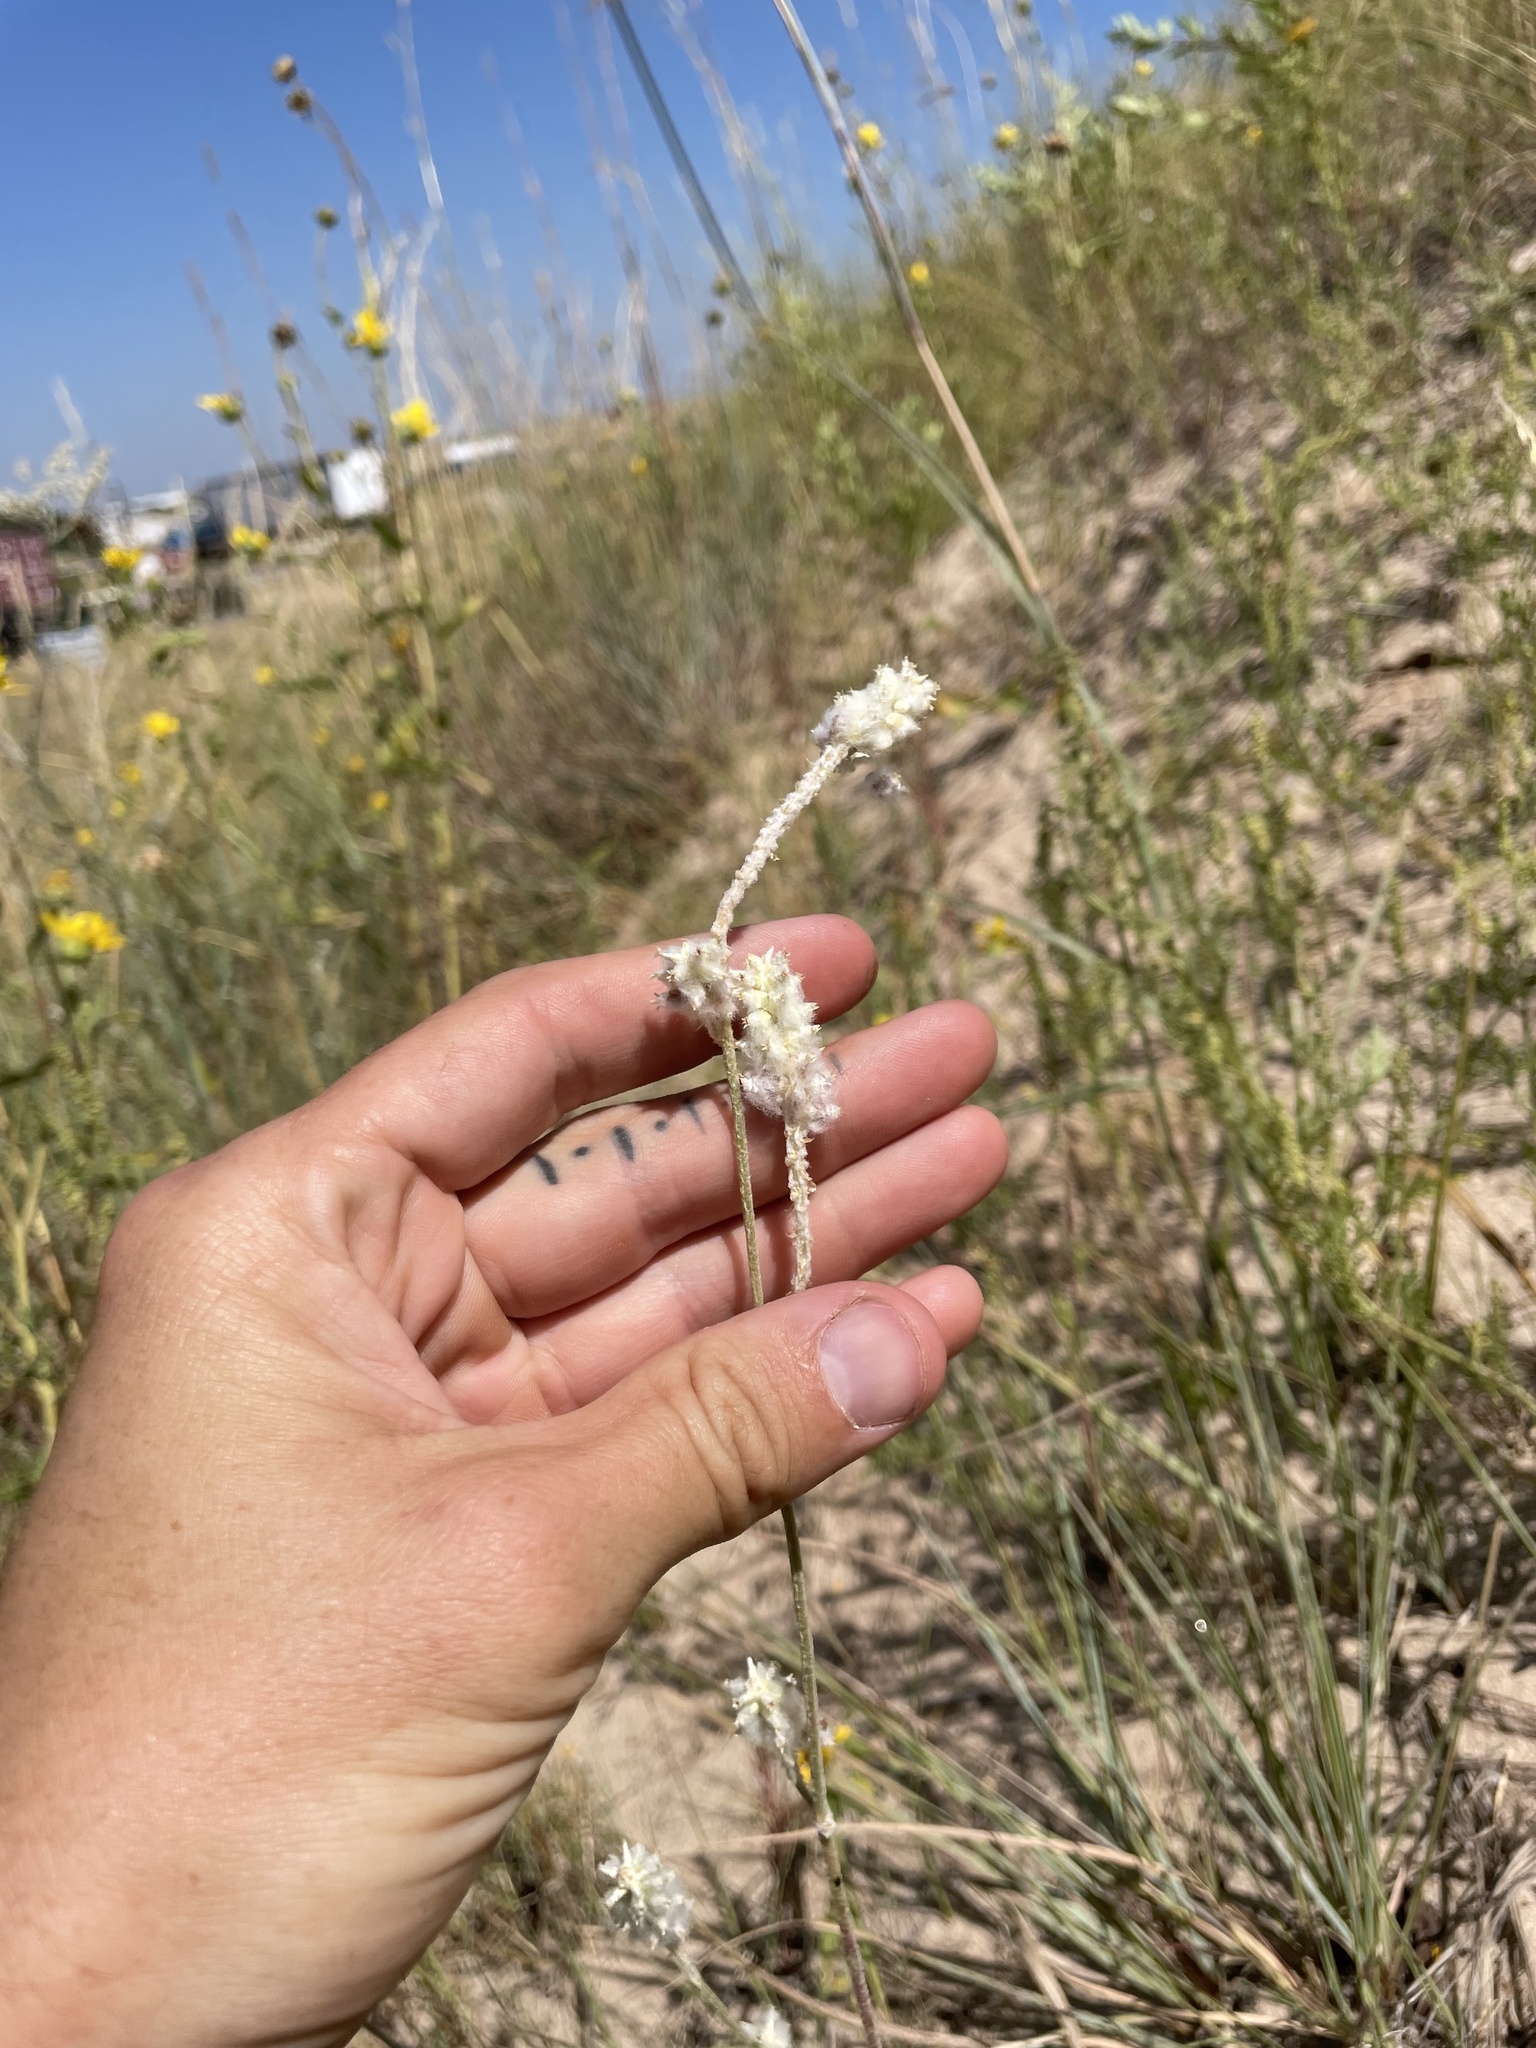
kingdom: Plantae
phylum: Tracheophyta
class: Magnoliopsida
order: Caryophyllales
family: Amaranthaceae
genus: Froelichia
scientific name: Froelichia floridana
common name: Florida snake-cotton
